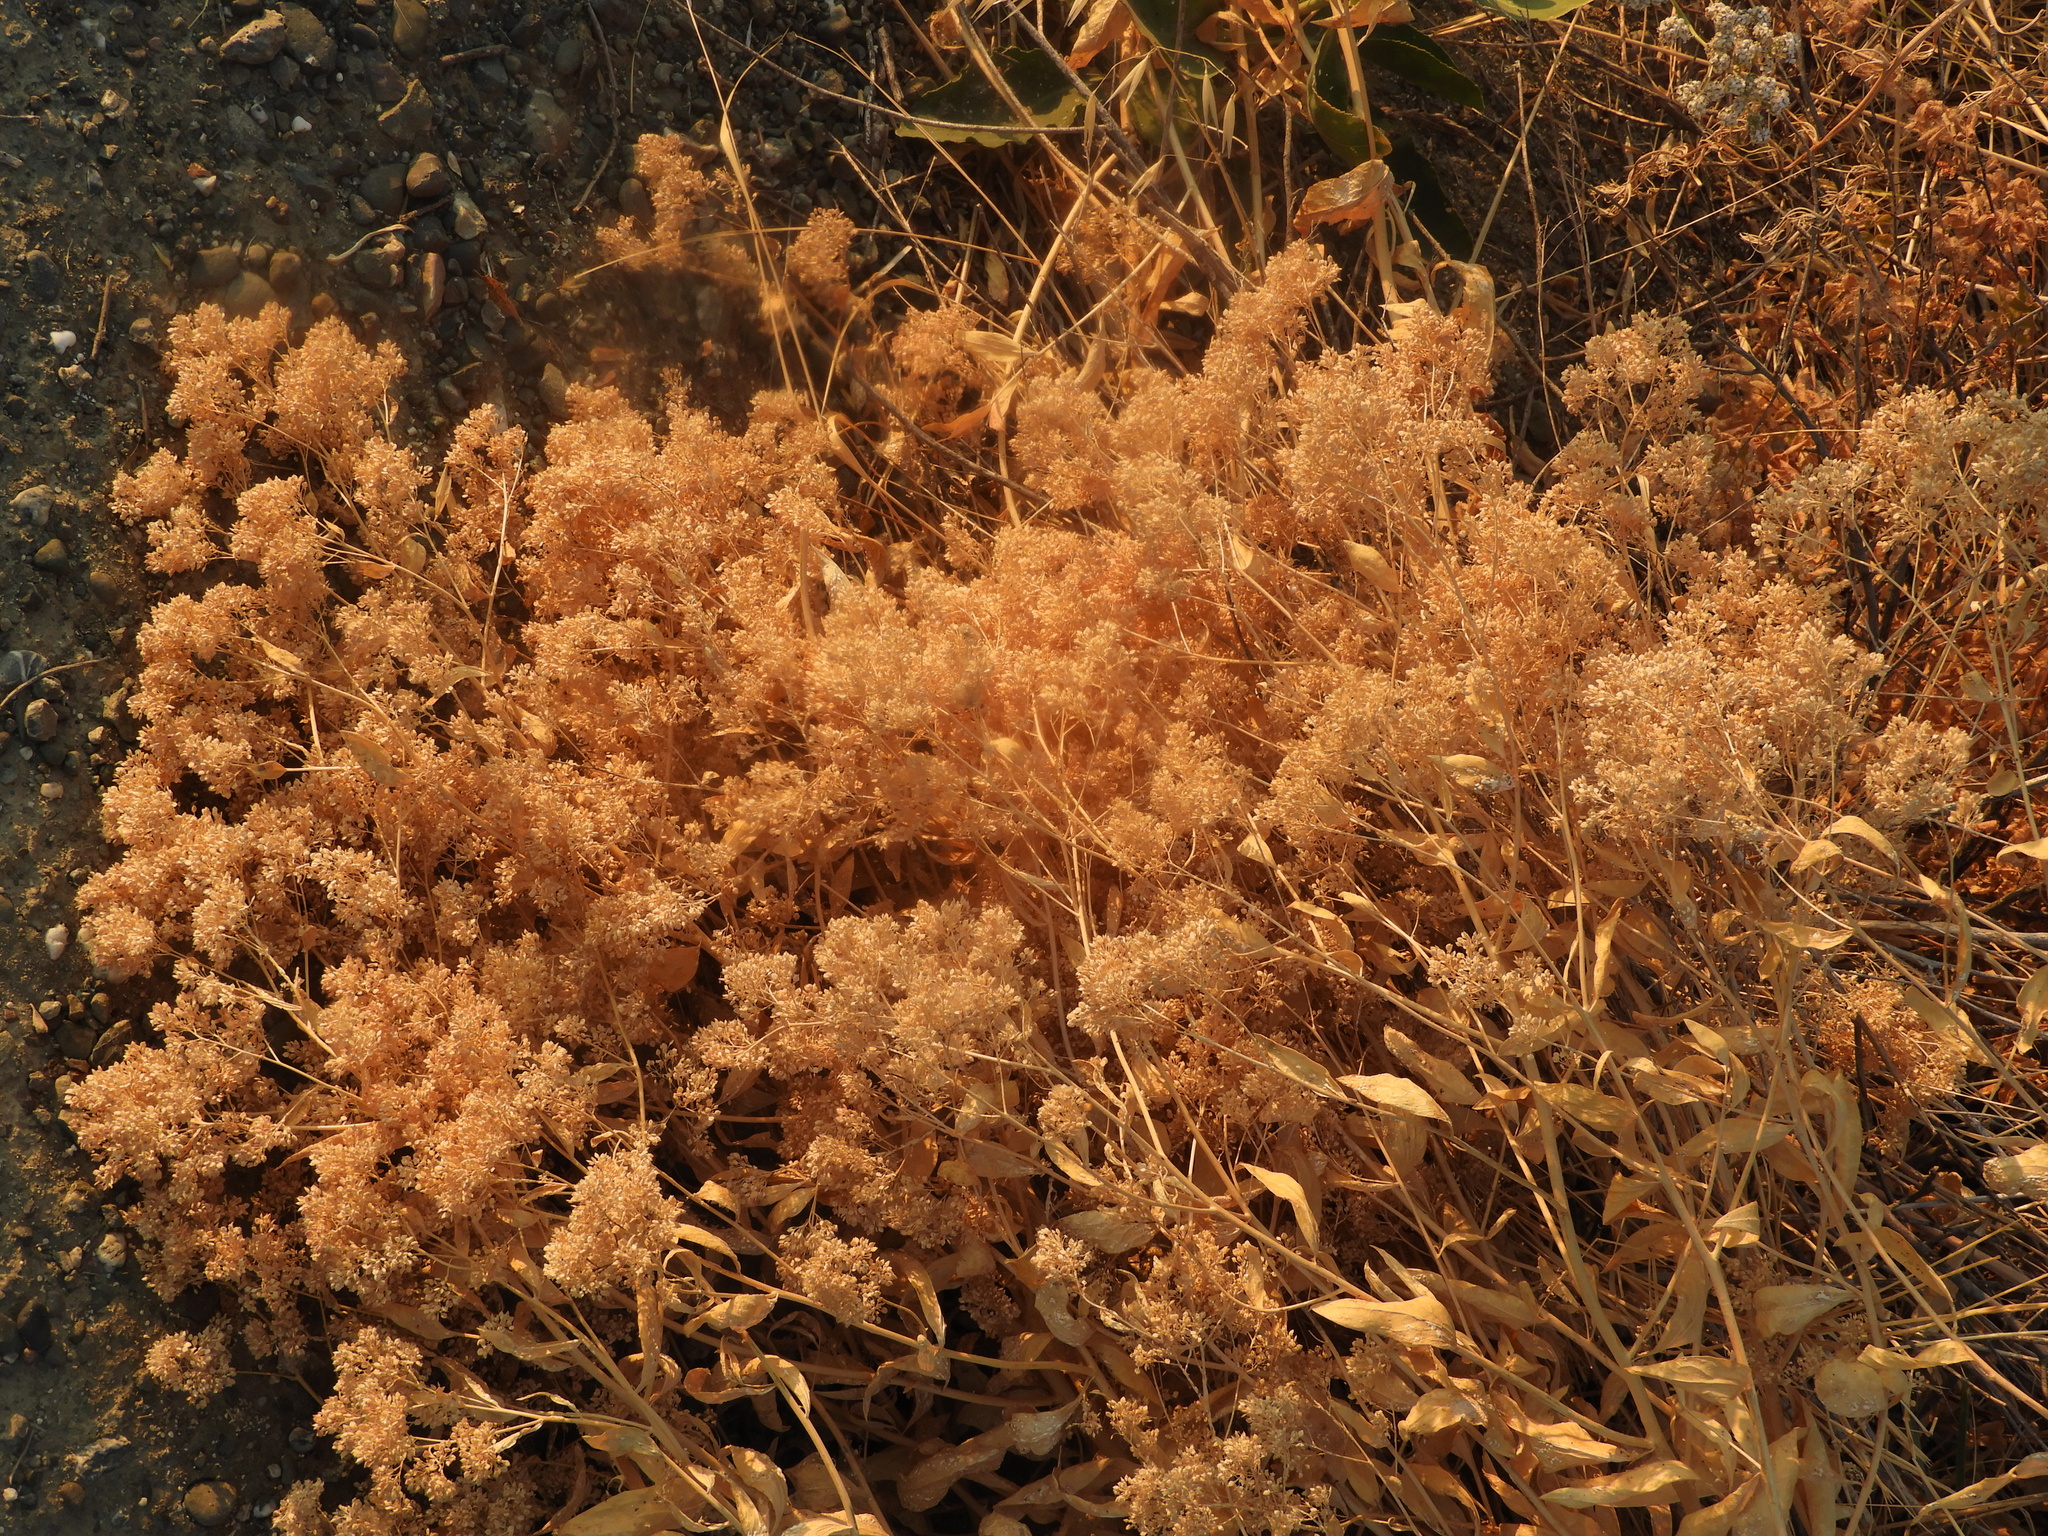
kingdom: Plantae
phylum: Tracheophyta
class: Magnoliopsida
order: Brassicales
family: Brassicaceae
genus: Lepidium
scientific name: Lepidium latifolium
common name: Dittander
